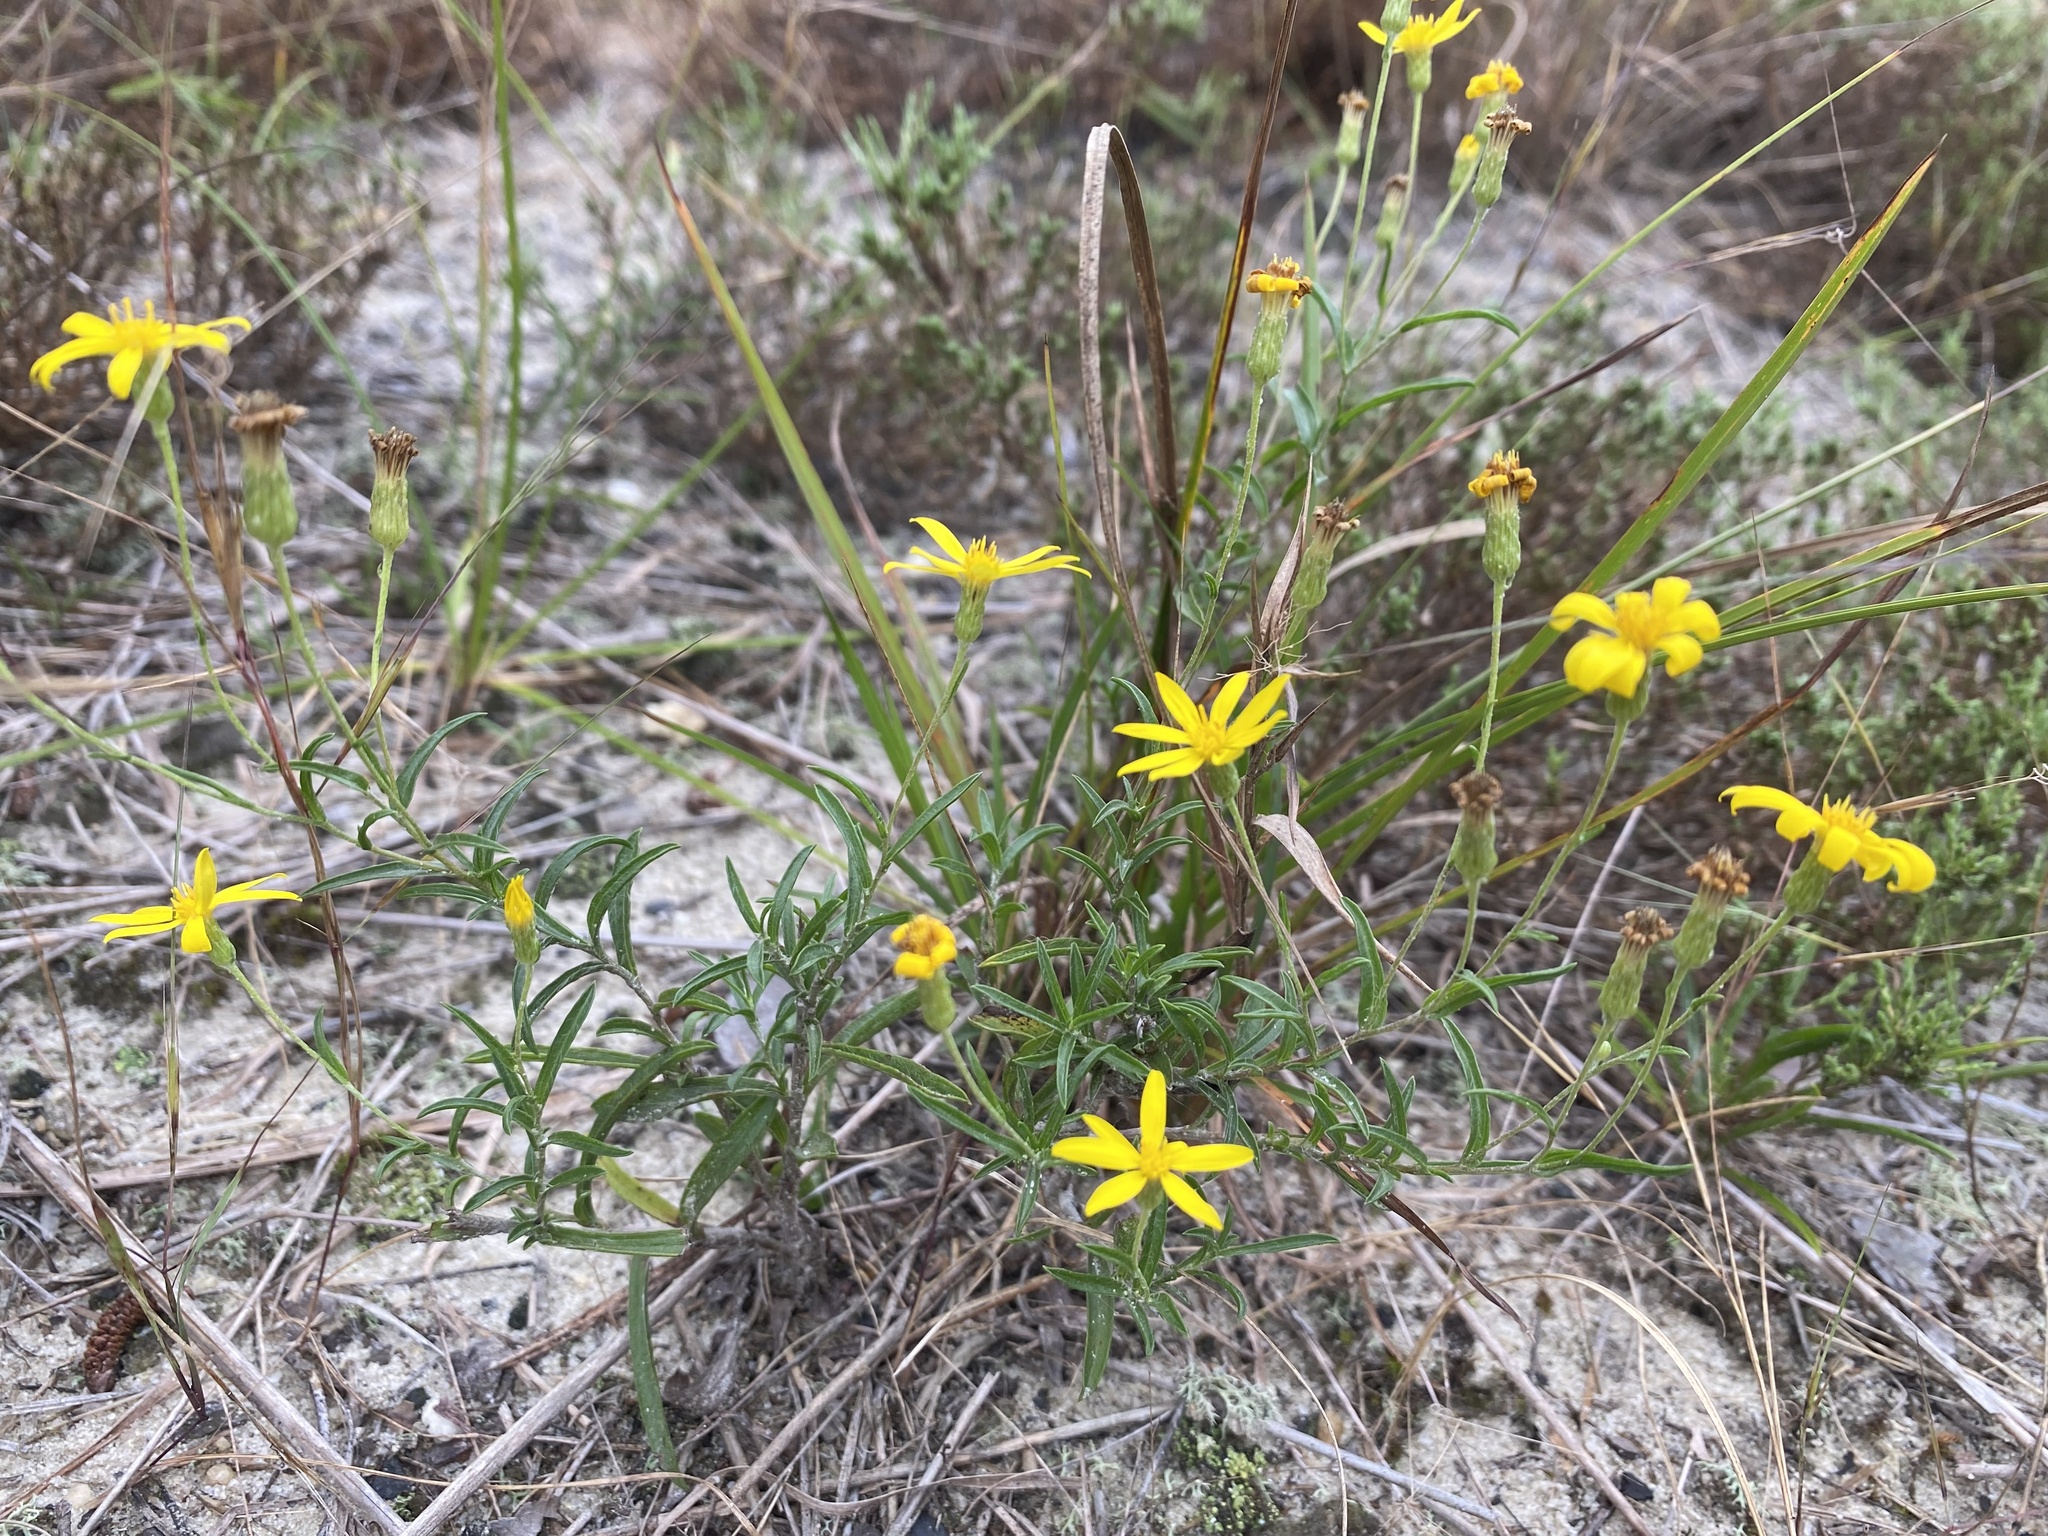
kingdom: Plantae
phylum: Tracheophyta
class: Magnoliopsida
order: Asterales
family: Asteraceae
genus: Pityopsis
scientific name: Pityopsis falcata
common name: Sickle-leaved goldenaster
